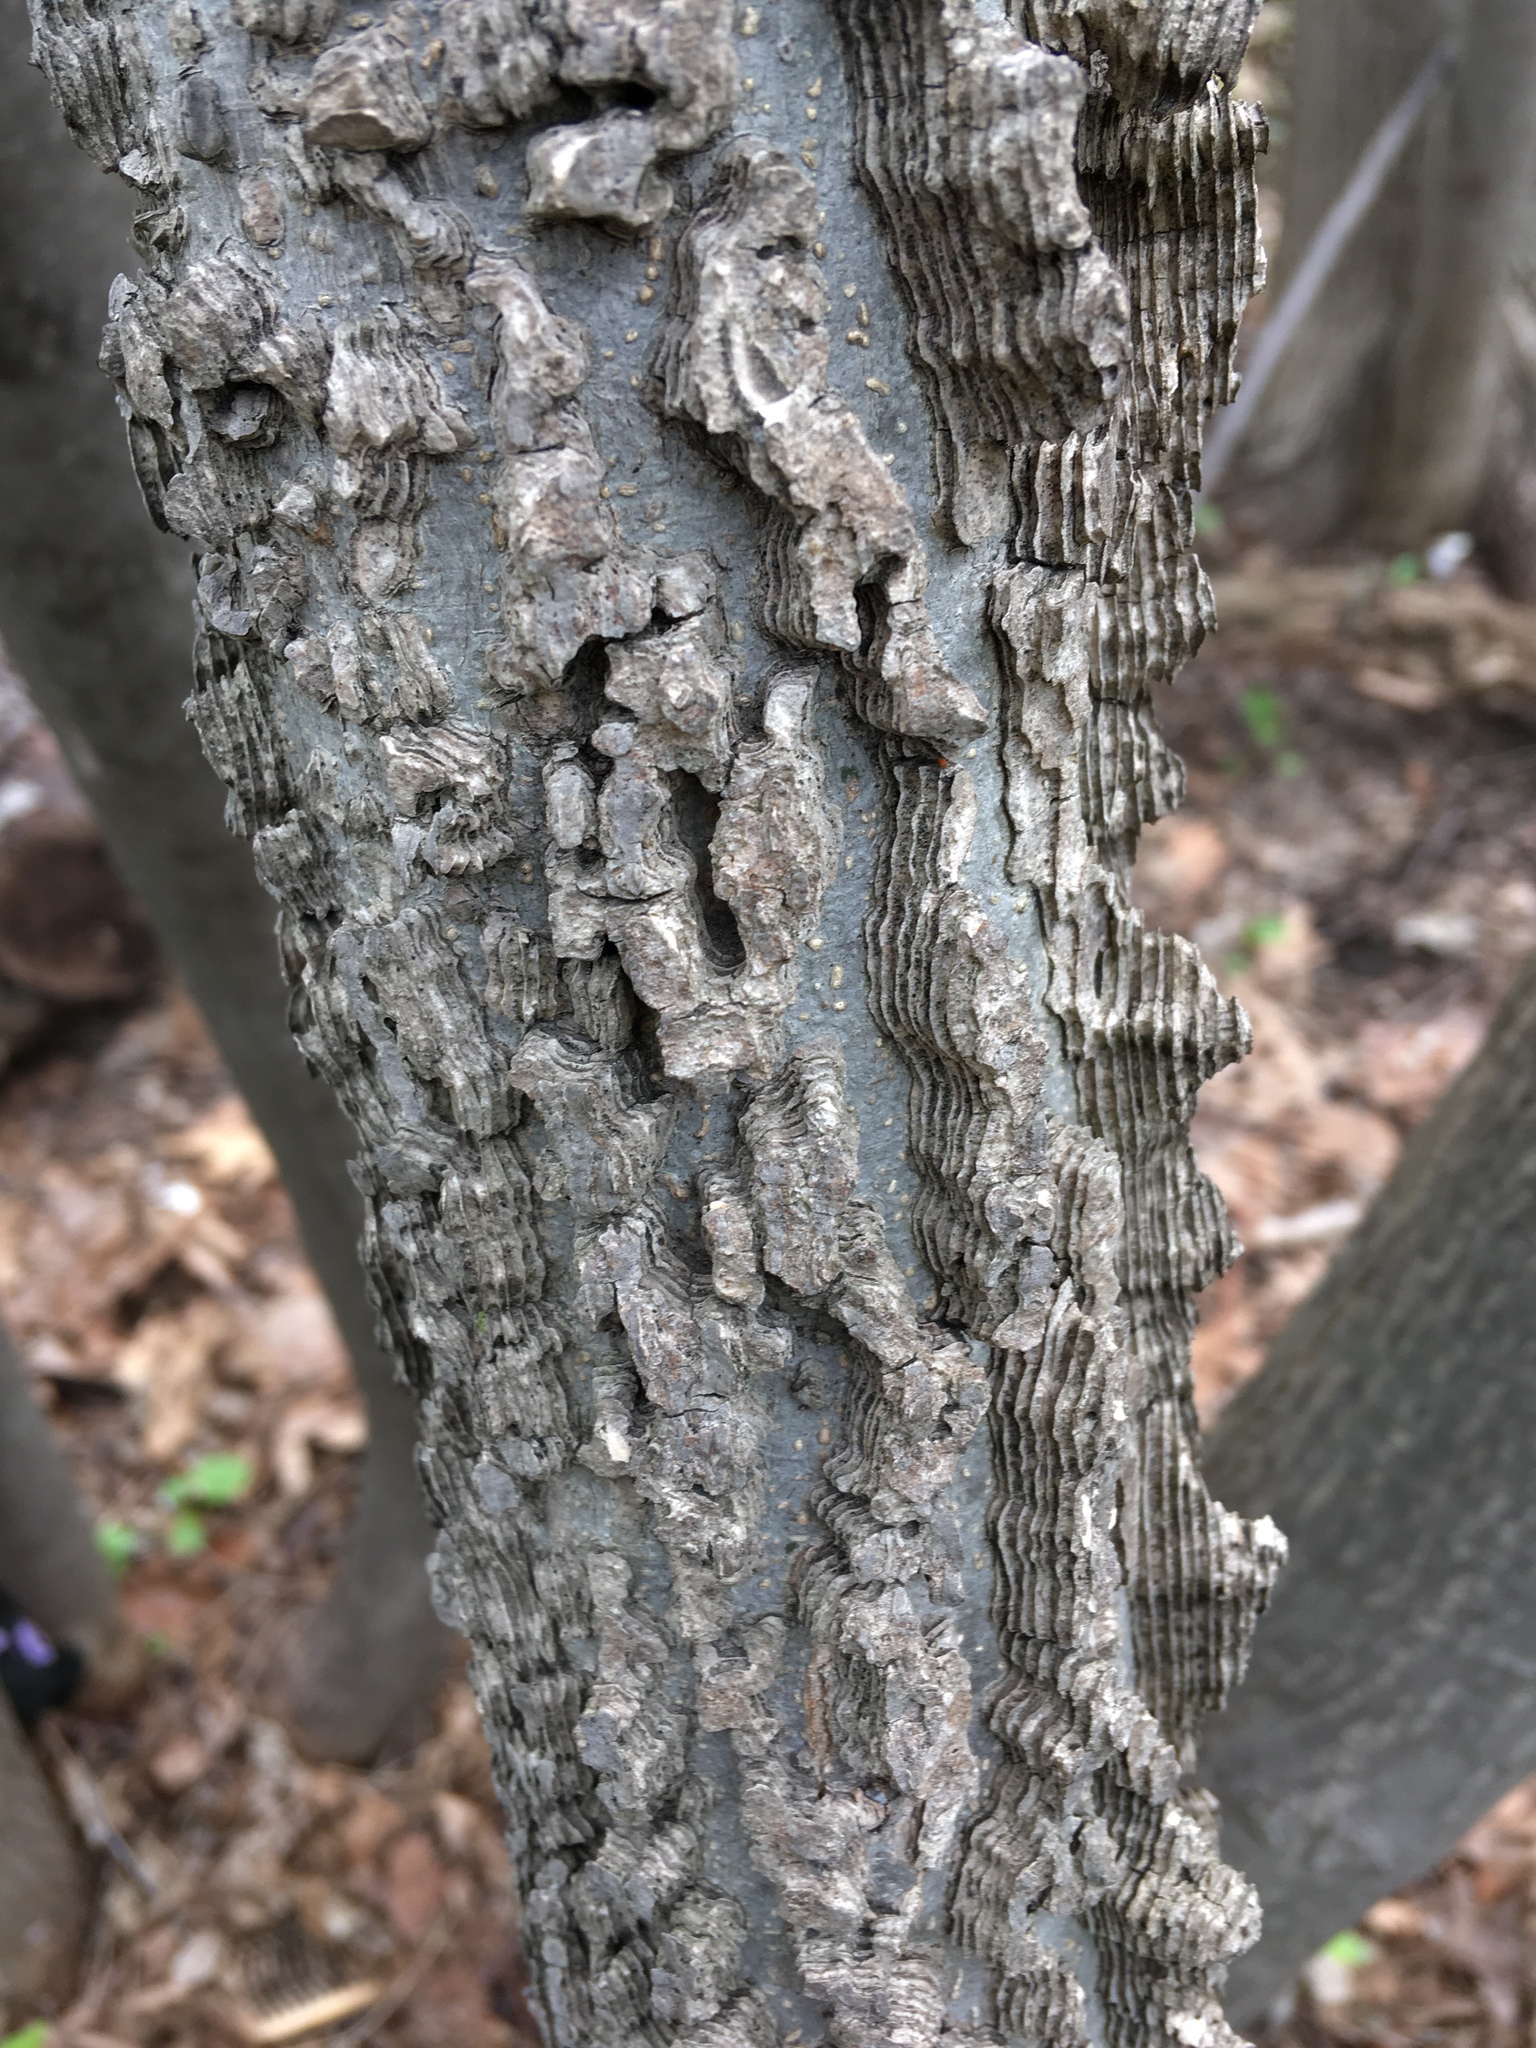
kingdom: Plantae
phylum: Tracheophyta
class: Magnoliopsida
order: Rosales
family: Cannabaceae
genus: Celtis
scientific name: Celtis occidentalis
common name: Common hackberry
